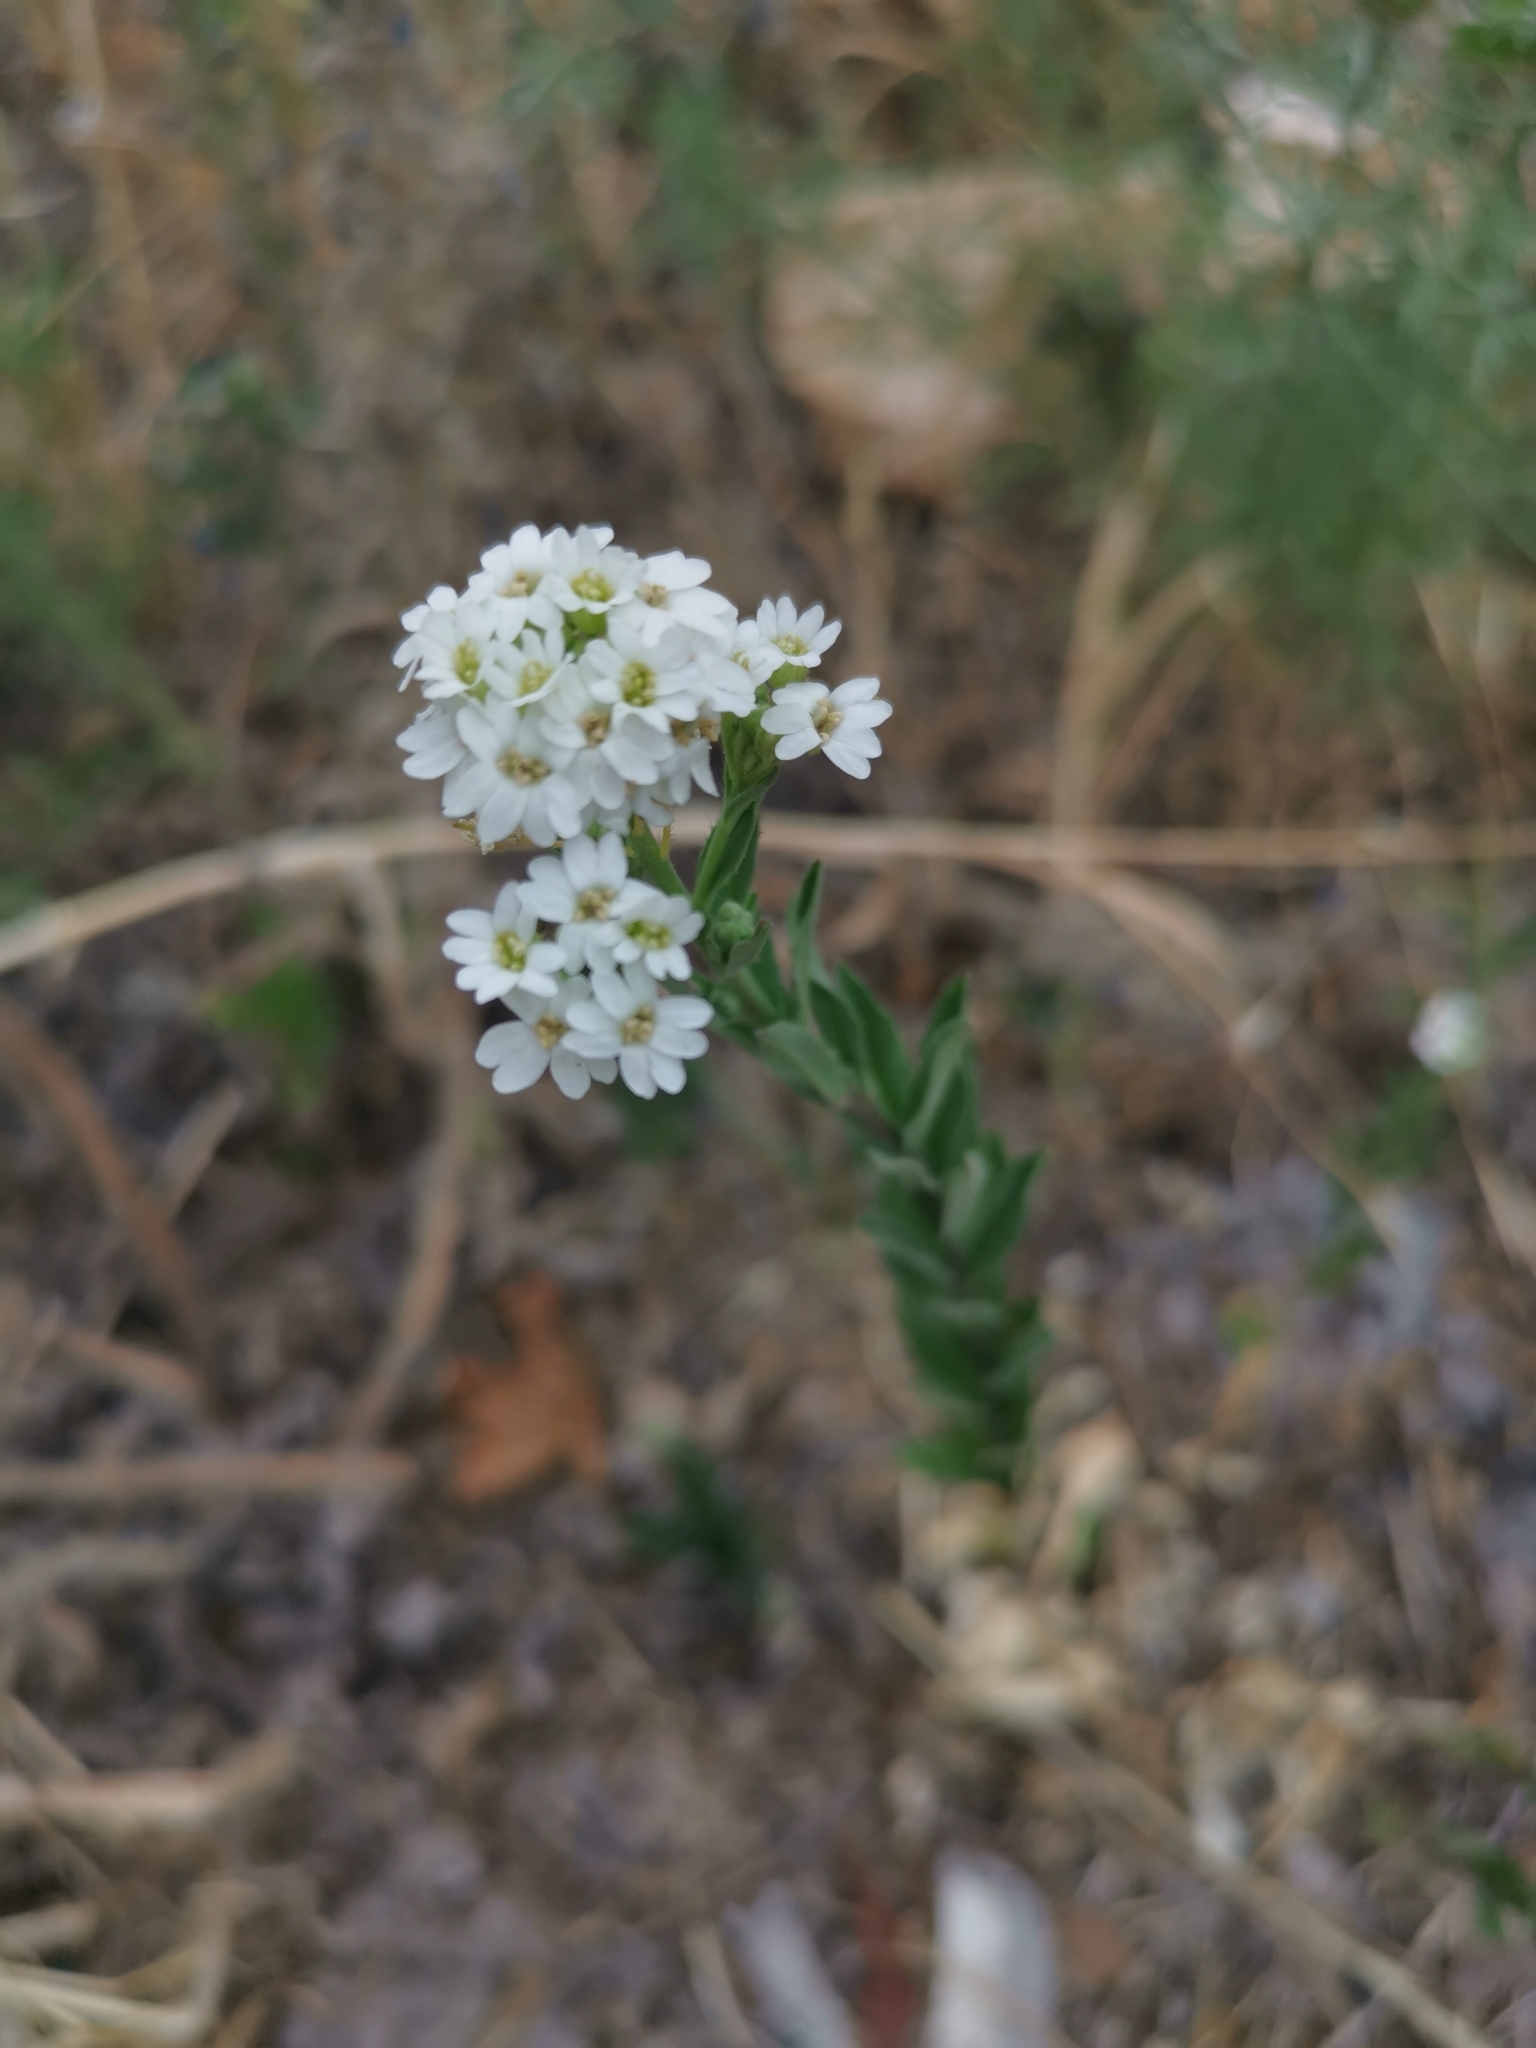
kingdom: Plantae
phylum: Tracheophyta
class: Magnoliopsida
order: Brassicales
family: Brassicaceae
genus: Berteroa
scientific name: Berteroa incana
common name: Hoary alison
